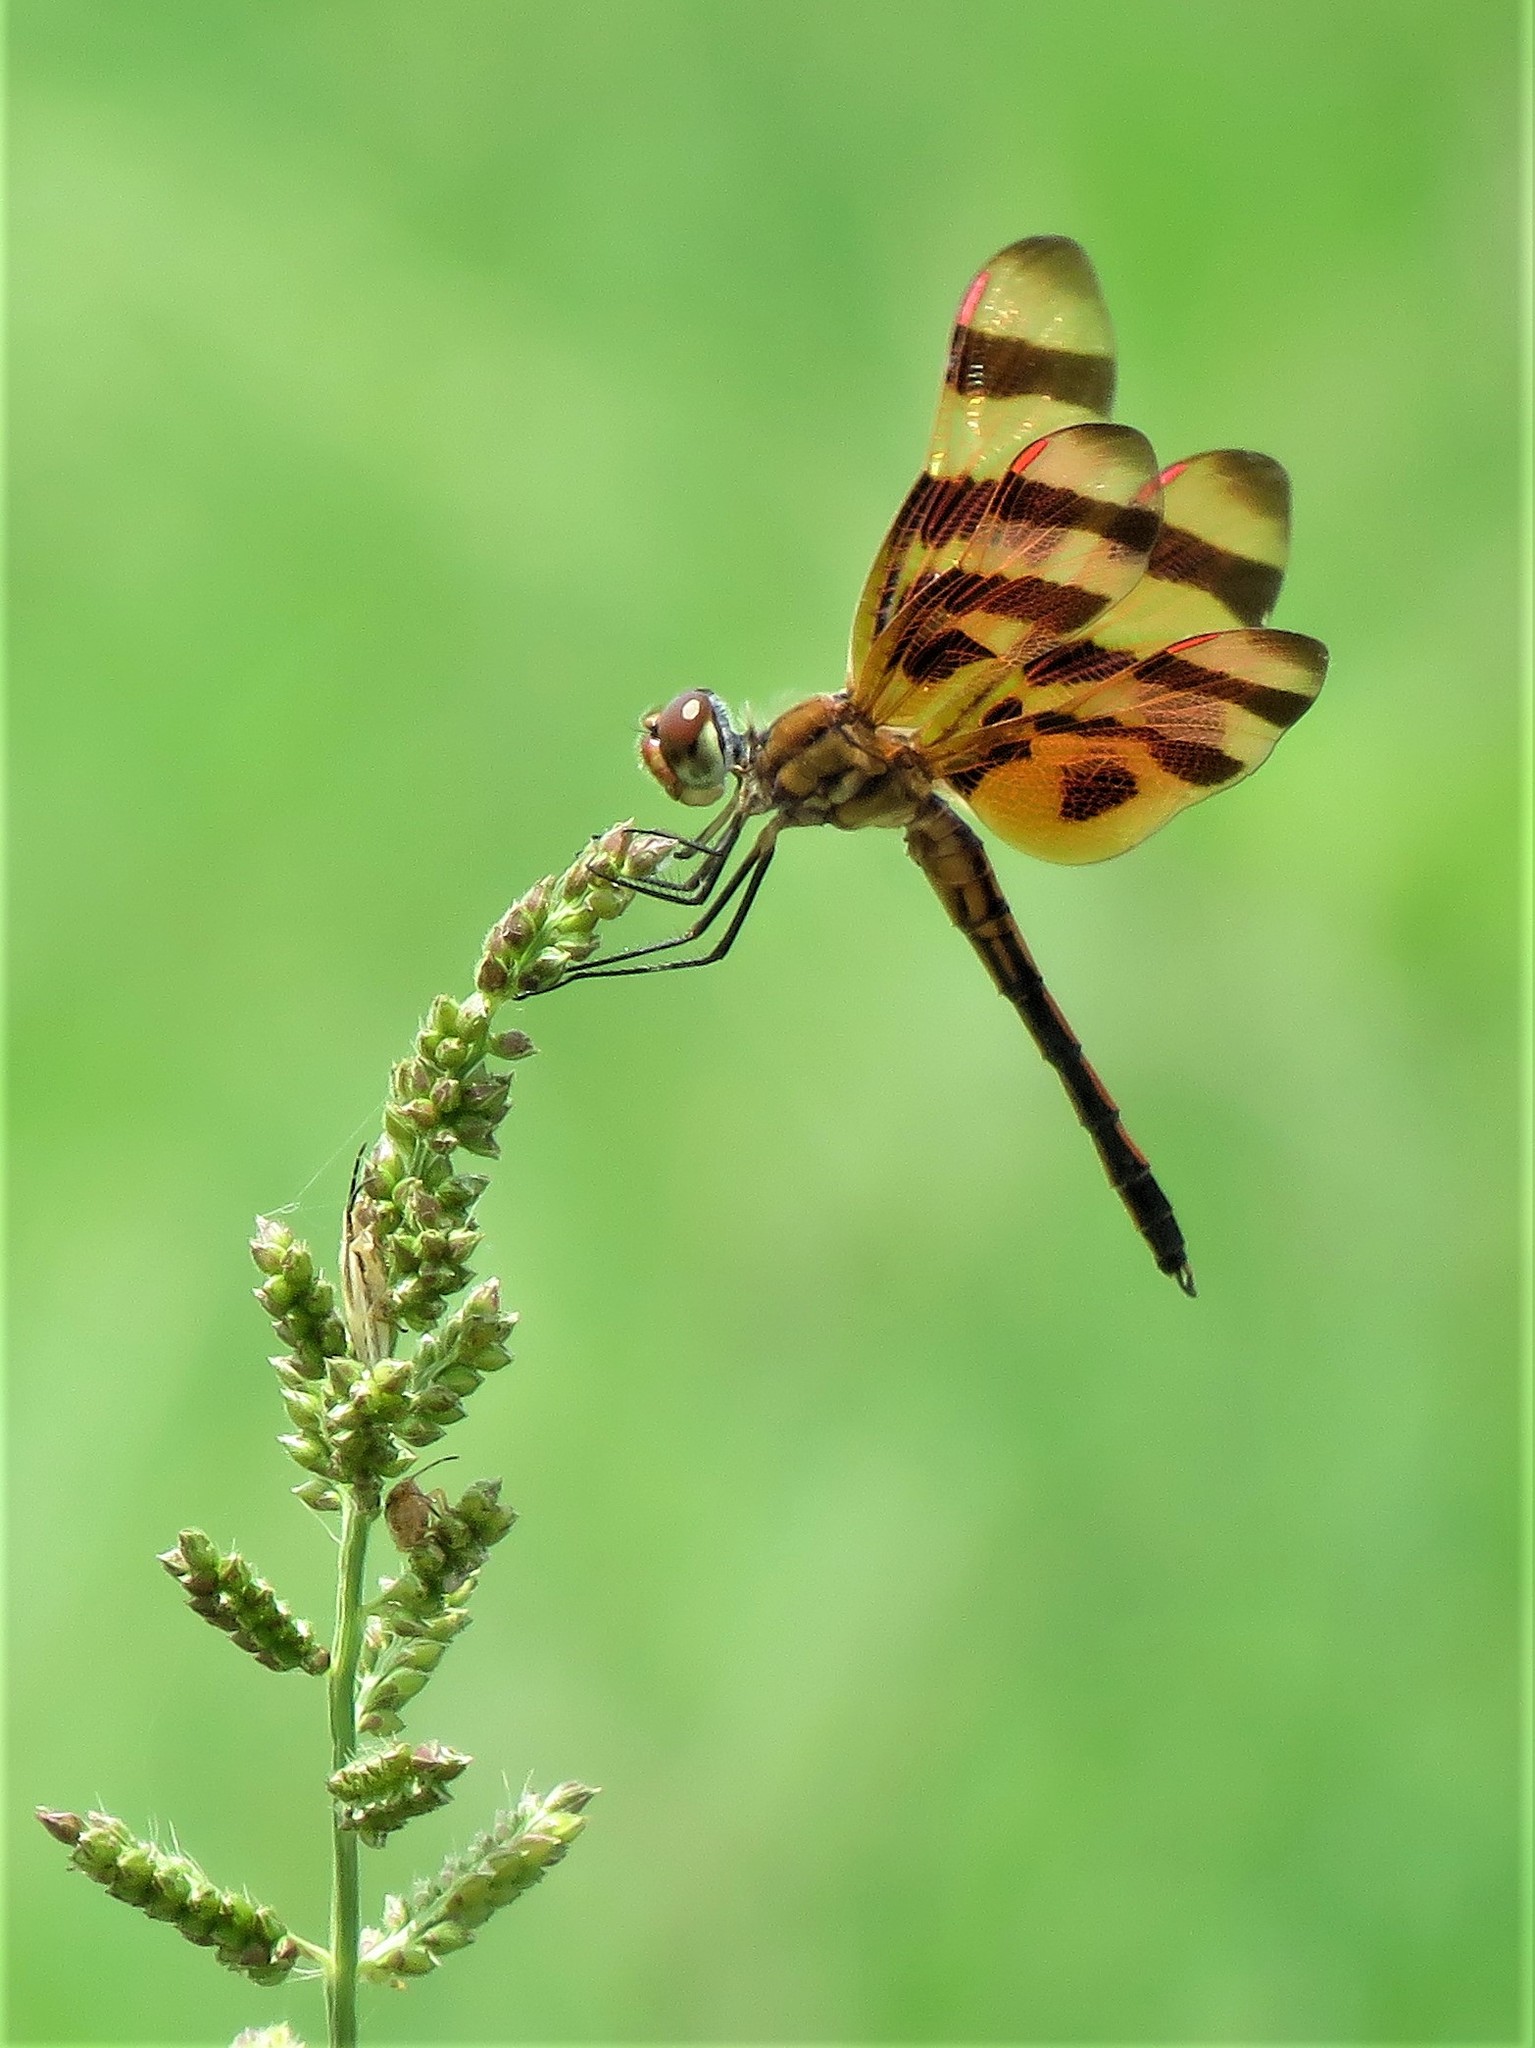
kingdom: Animalia
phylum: Arthropoda
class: Insecta
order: Odonata
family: Libellulidae
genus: Celithemis
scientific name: Celithemis eponina
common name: Halloween pennant
